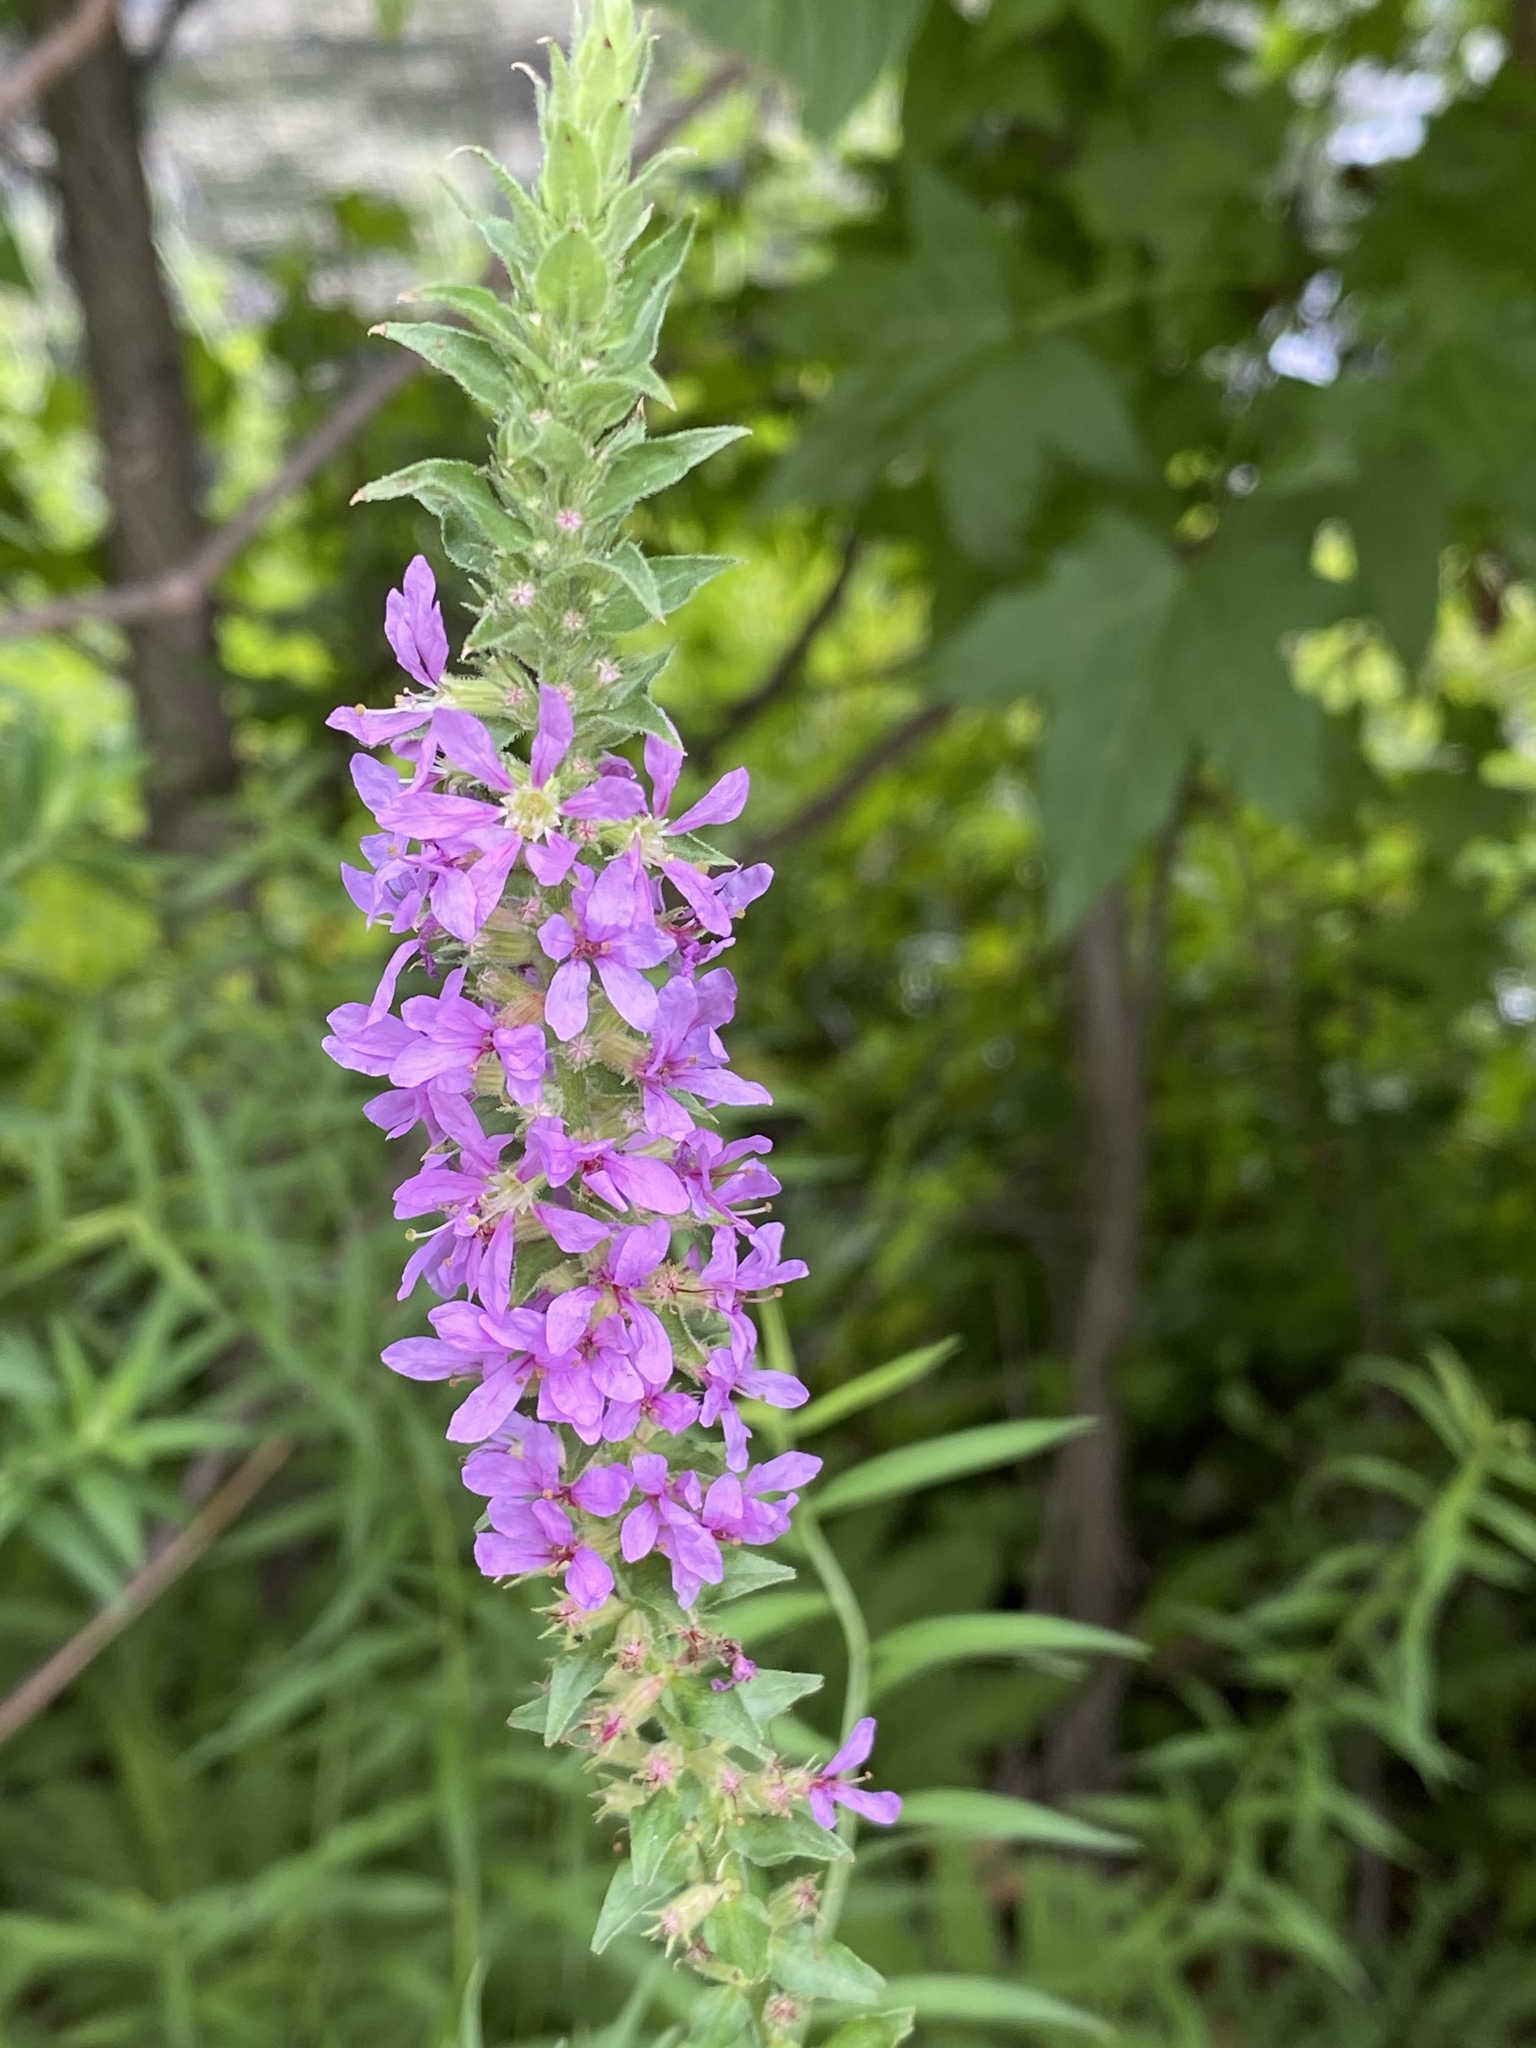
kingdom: Plantae
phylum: Tracheophyta
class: Magnoliopsida
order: Myrtales
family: Lythraceae
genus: Lythrum
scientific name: Lythrum salicaria
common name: Purple loosestrife
